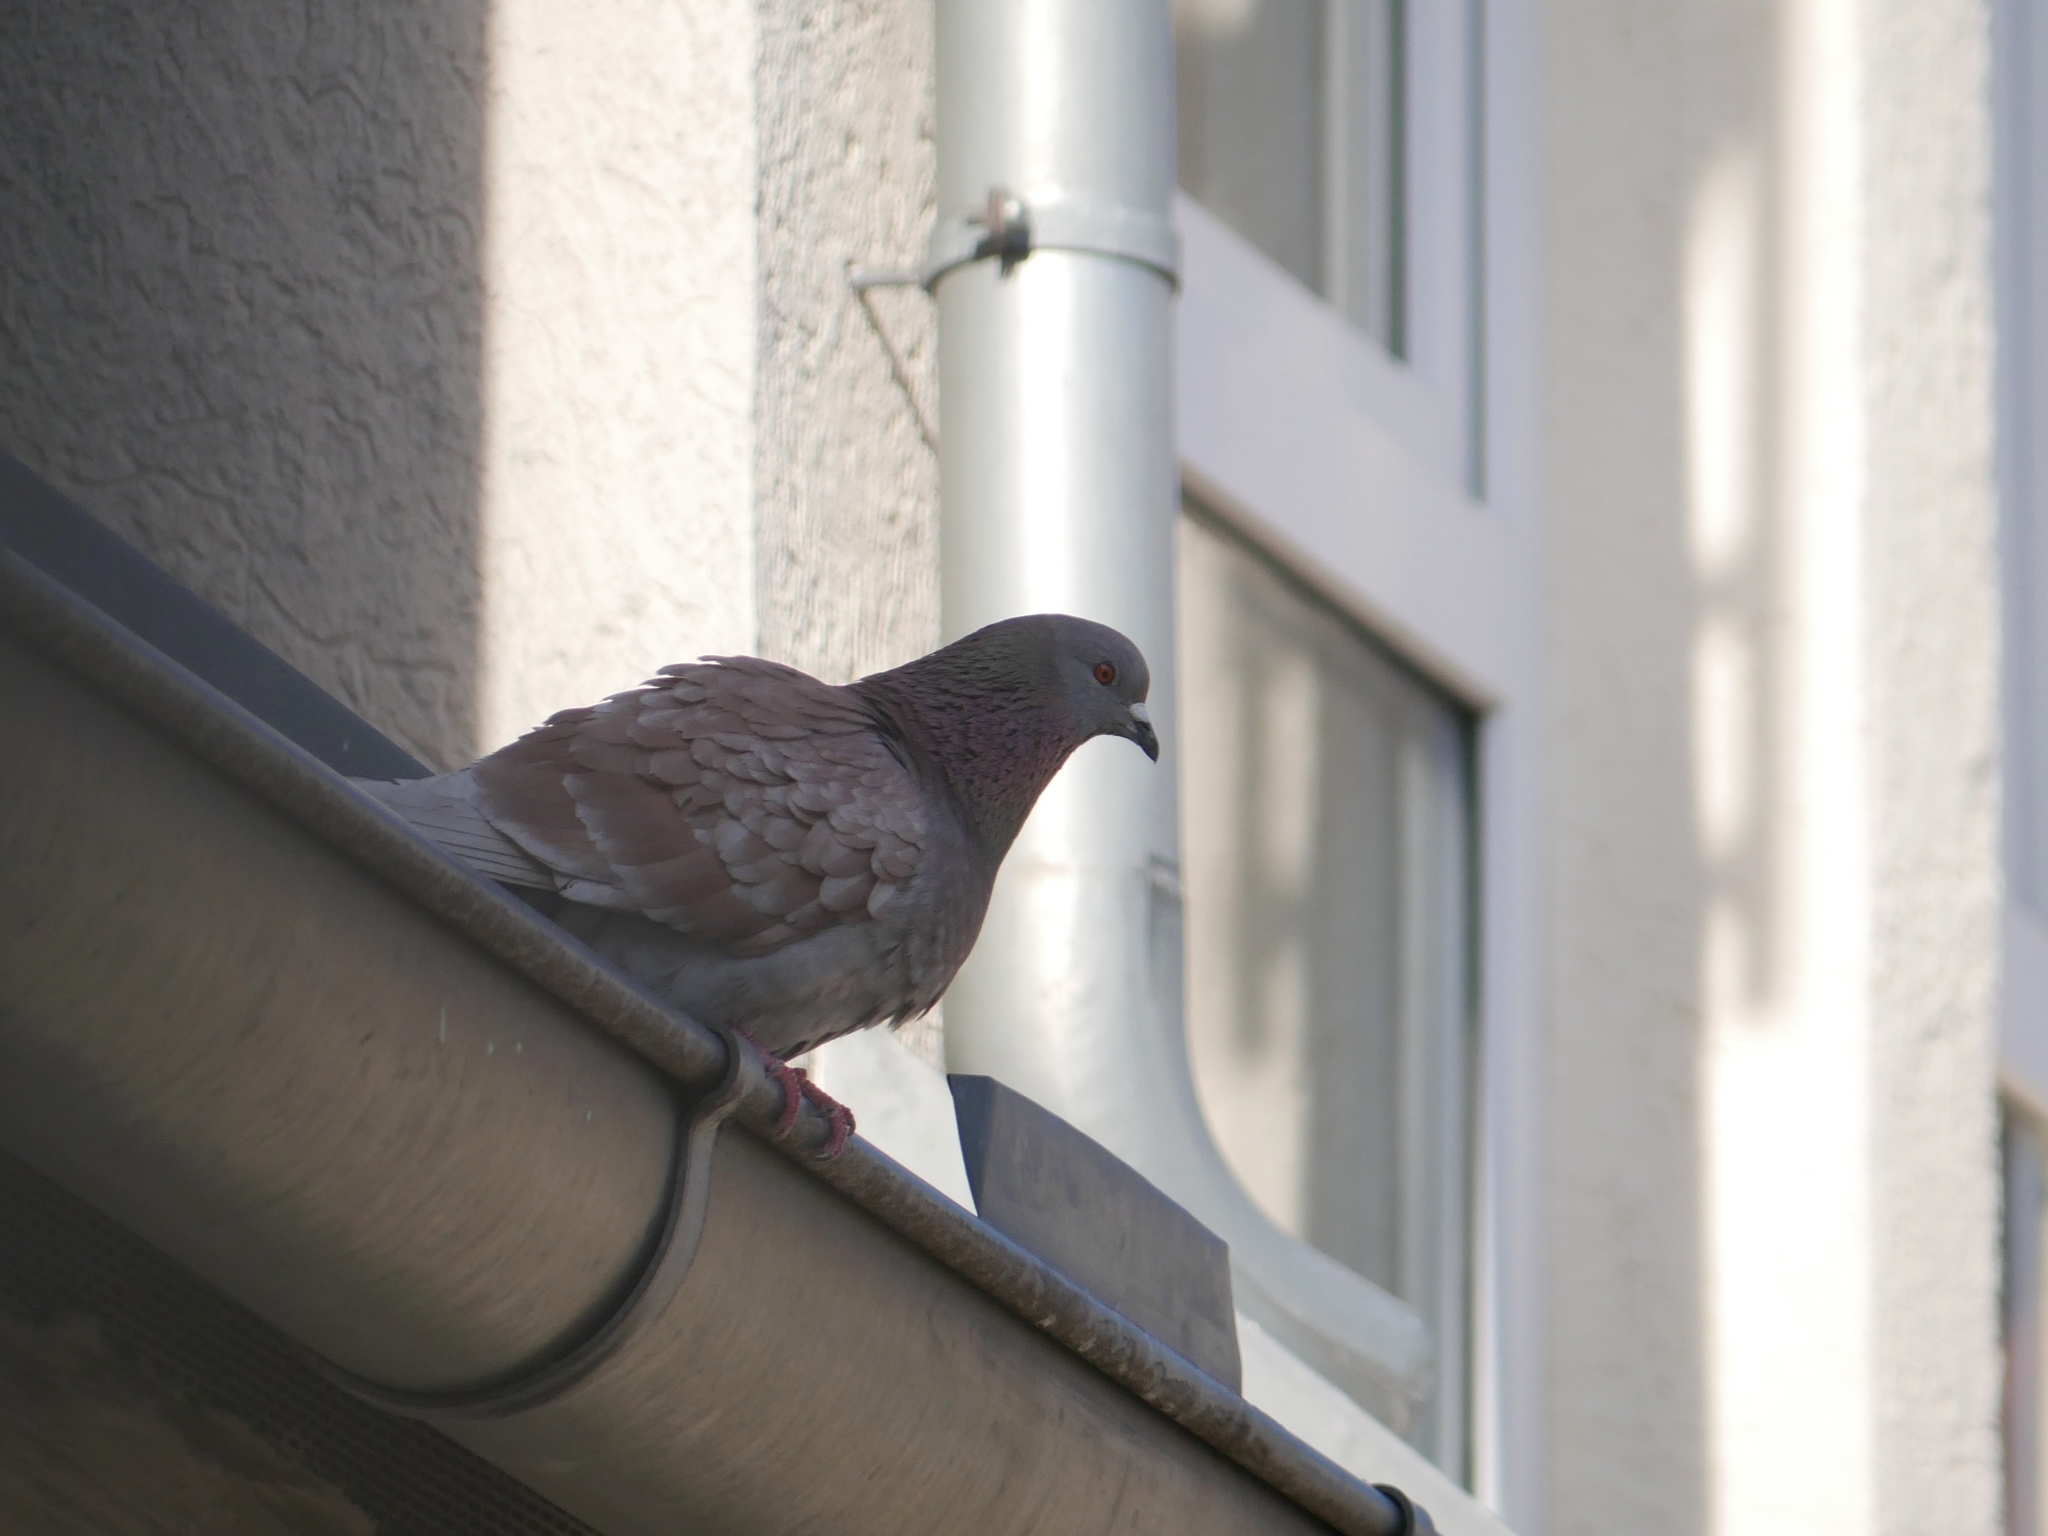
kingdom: Animalia
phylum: Chordata
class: Aves
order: Columbiformes
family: Columbidae
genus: Columba
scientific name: Columba livia
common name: Rock pigeon
